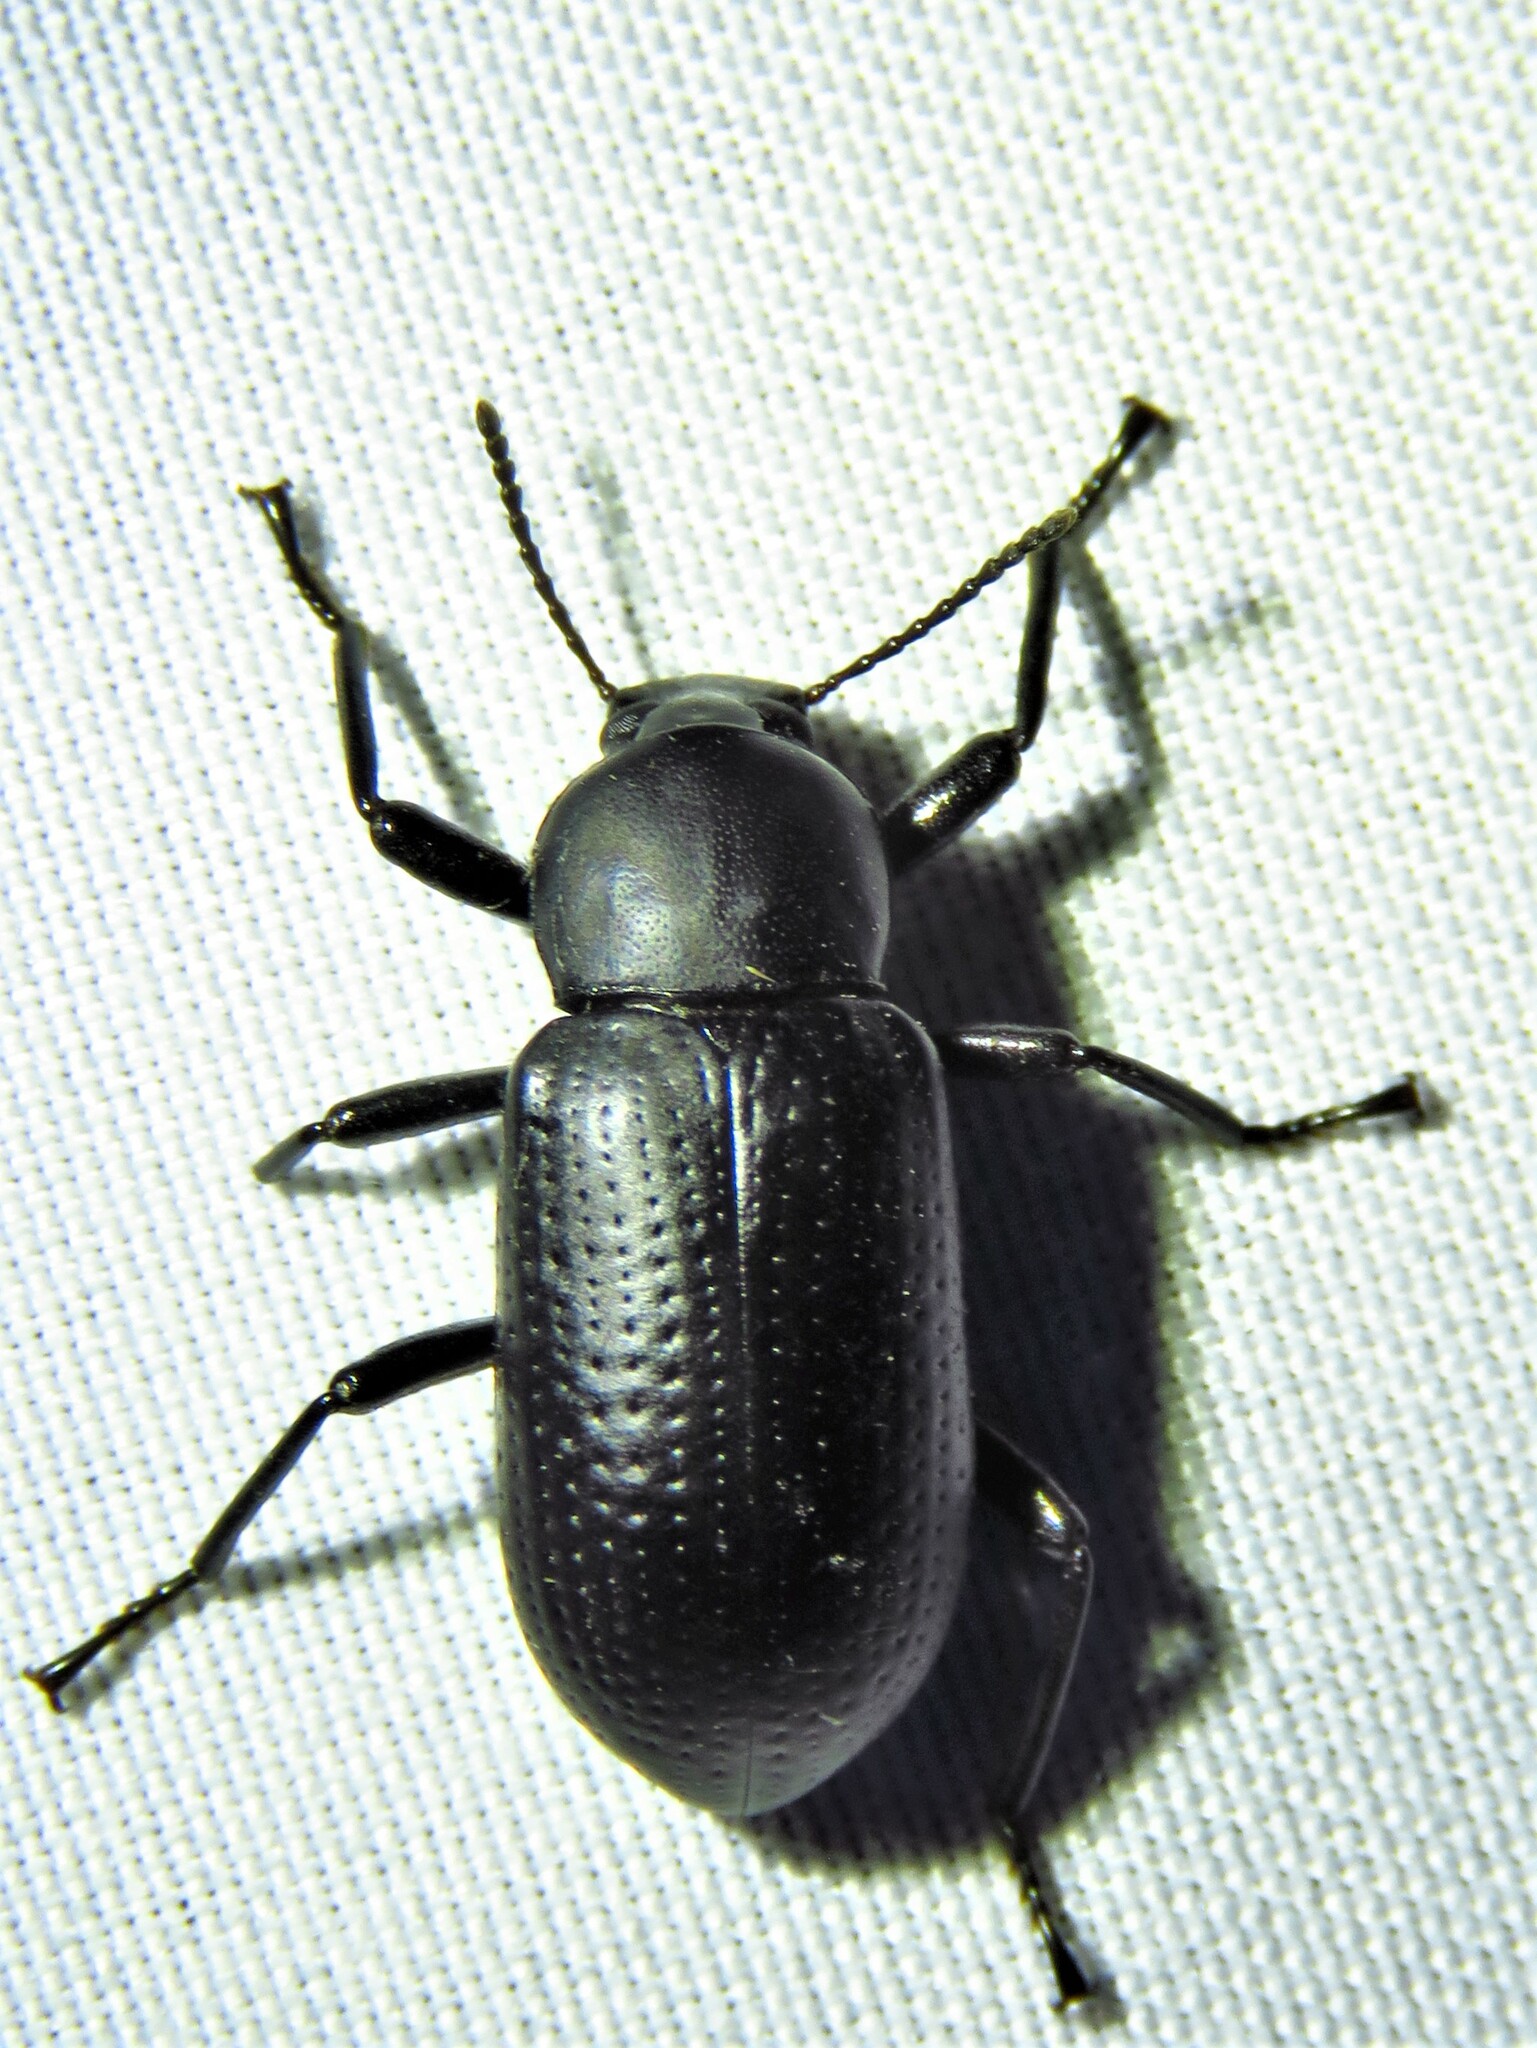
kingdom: Animalia
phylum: Arthropoda
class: Insecta
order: Coleoptera
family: Tenebrionidae
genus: Glyptotus
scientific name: Glyptotus cribratus
